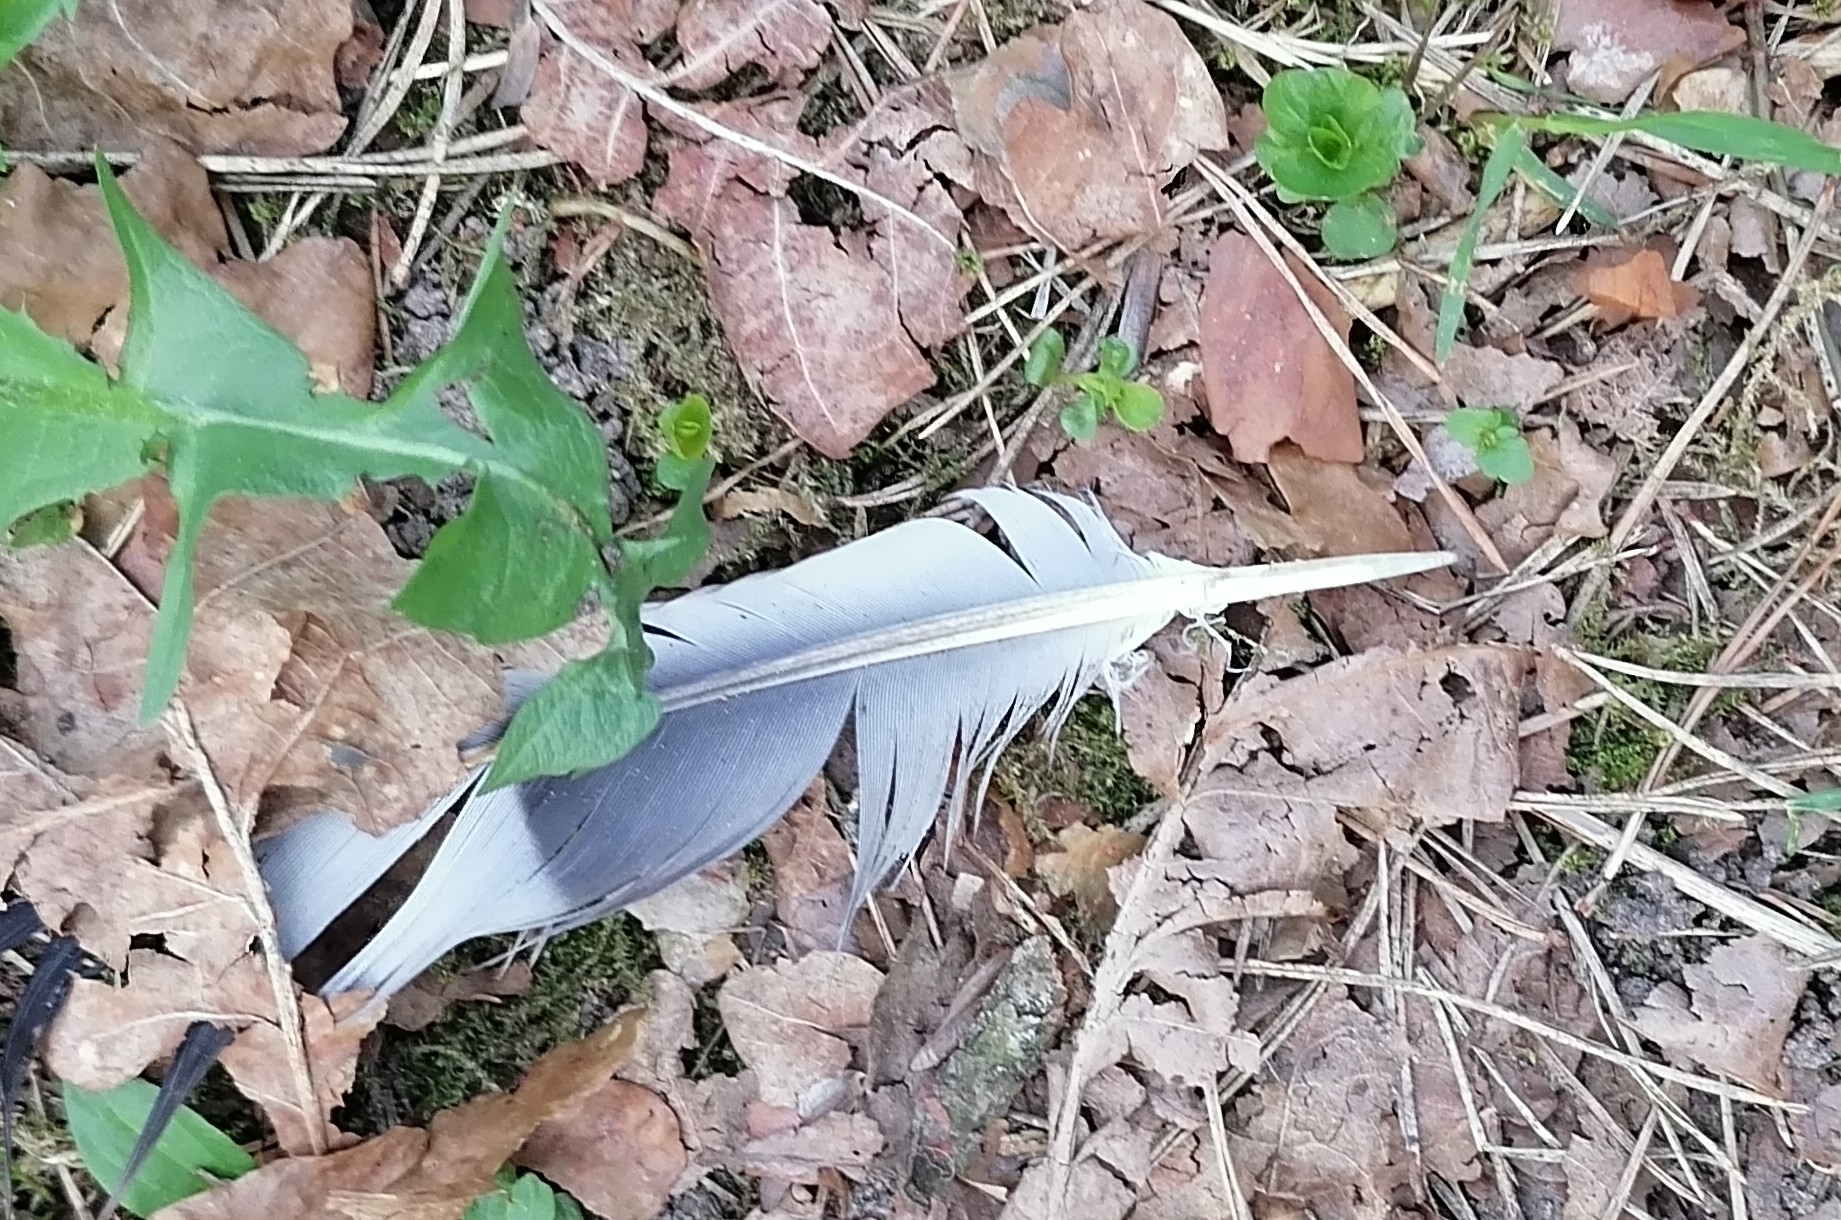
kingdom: Animalia
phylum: Chordata
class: Aves
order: Columbiformes
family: Columbidae
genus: Columba
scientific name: Columba palumbus
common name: Common wood pigeon
